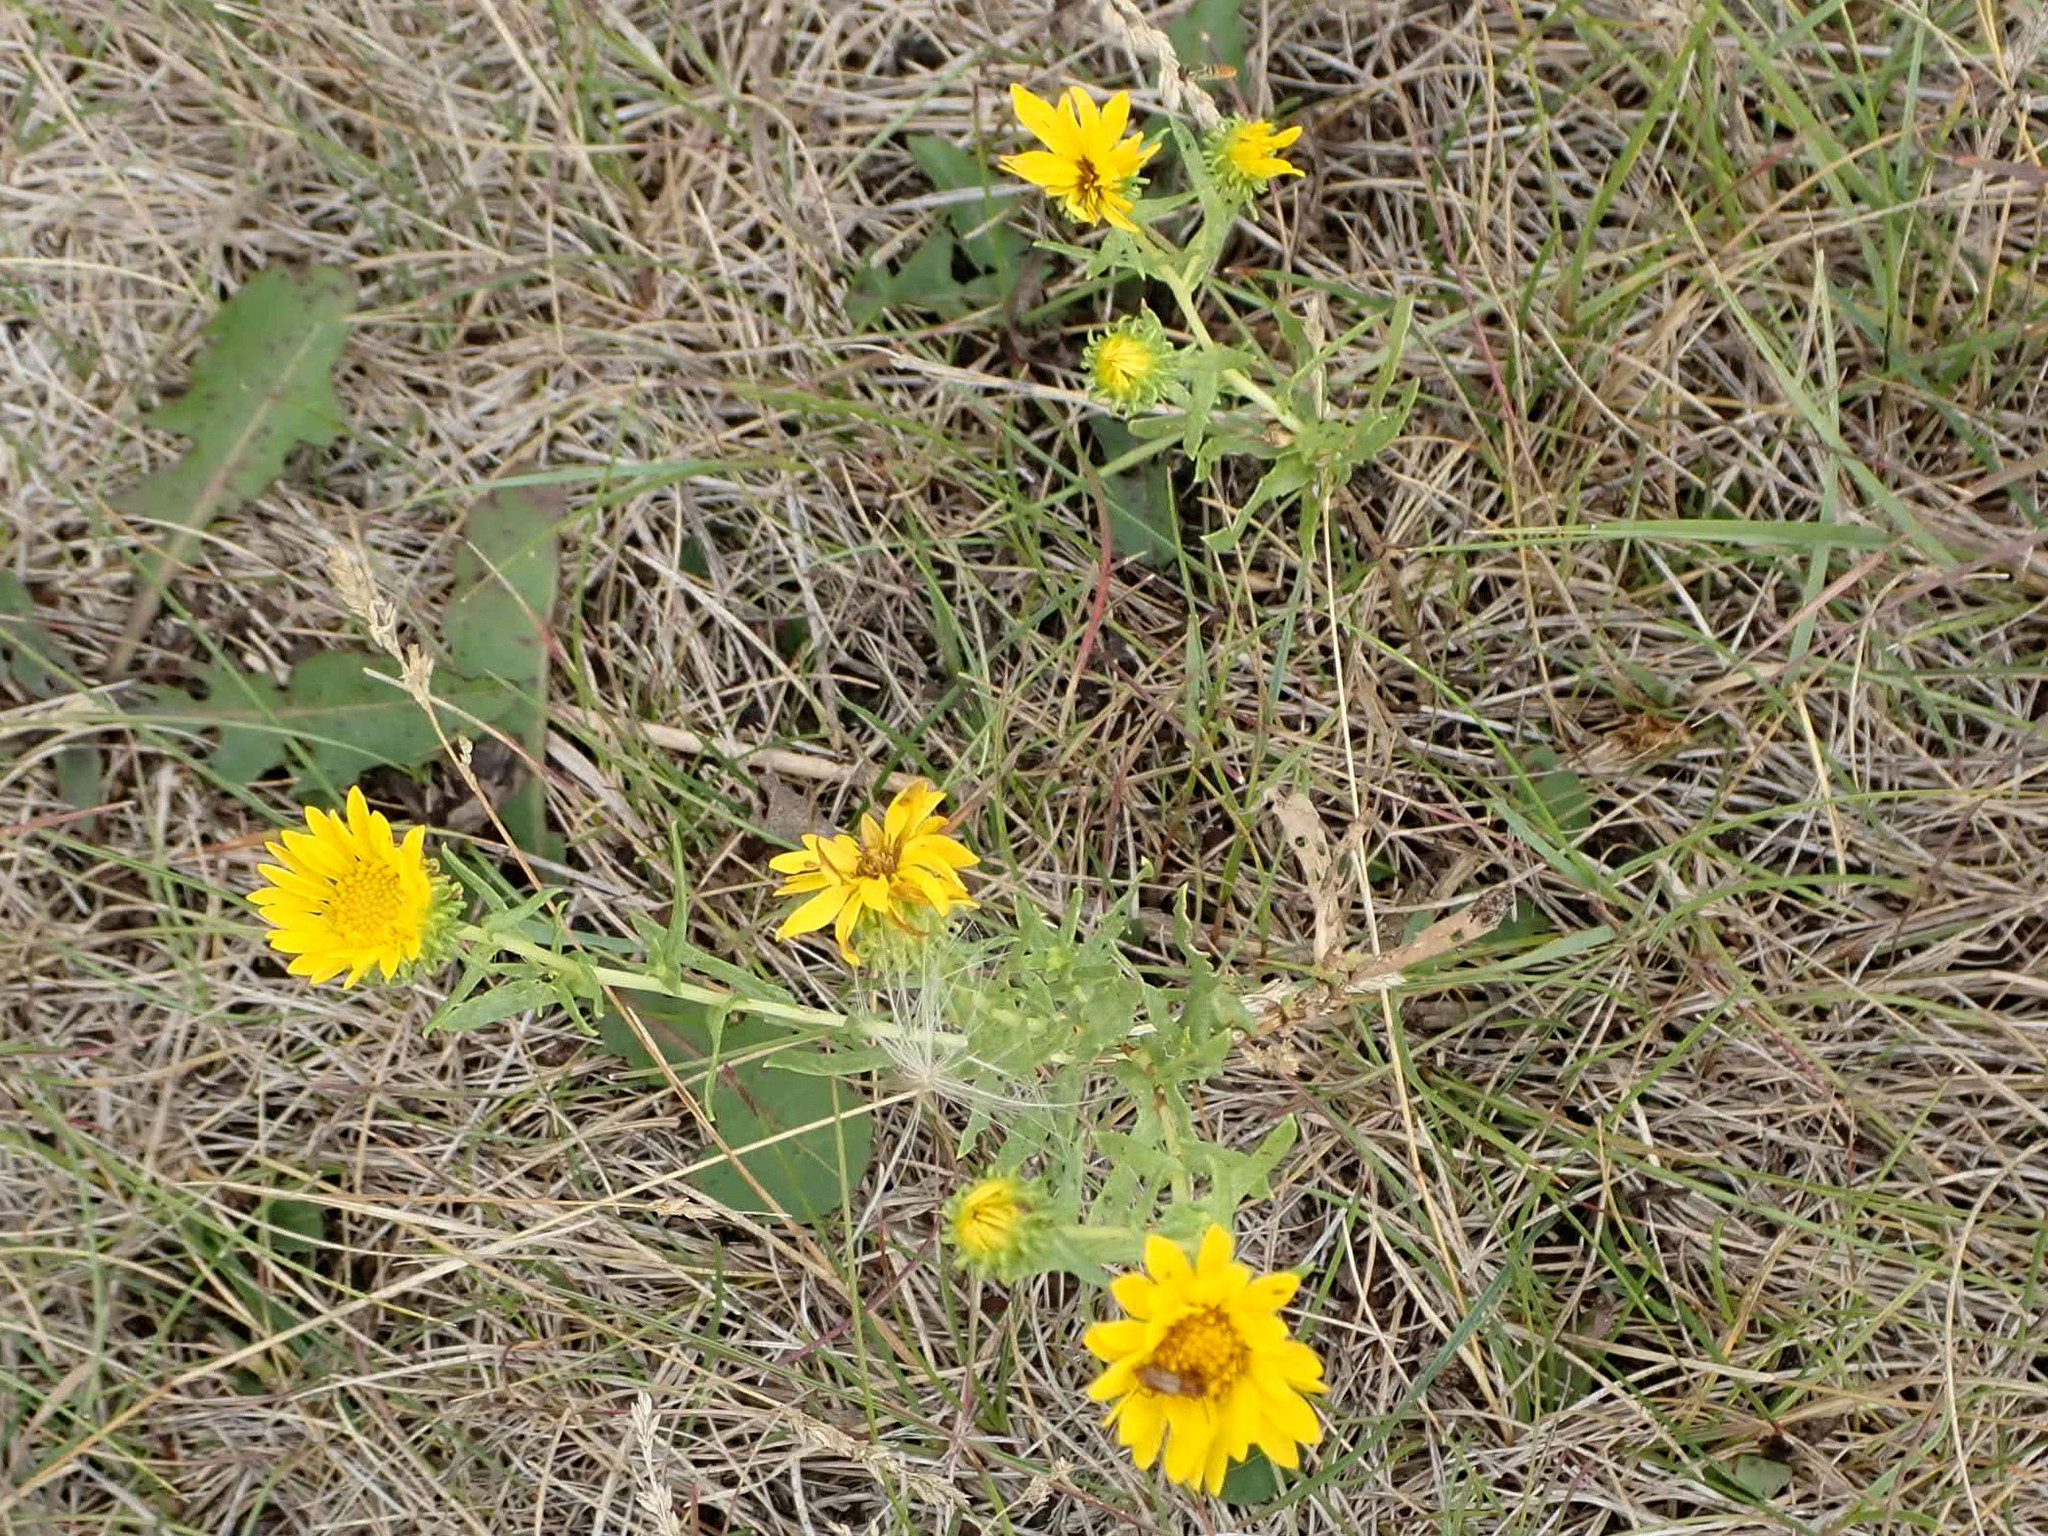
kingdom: Plantae
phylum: Tracheophyta
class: Magnoliopsida
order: Asterales
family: Asteraceae
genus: Grindelia
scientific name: Grindelia squarrosa
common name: Curly-cup gumweed
